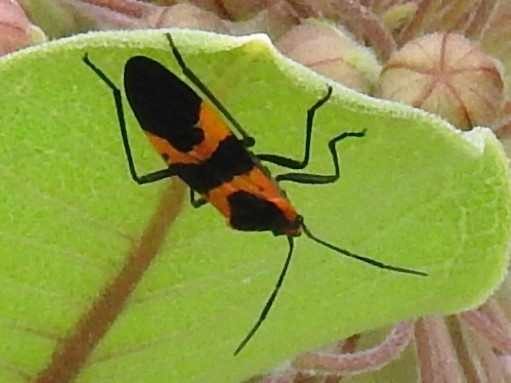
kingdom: Animalia
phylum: Arthropoda
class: Insecta
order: Hemiptera
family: Lygaeidae
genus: Oncopeltus
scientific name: Oncopeltus fasciatus
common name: Large milkweed bug
